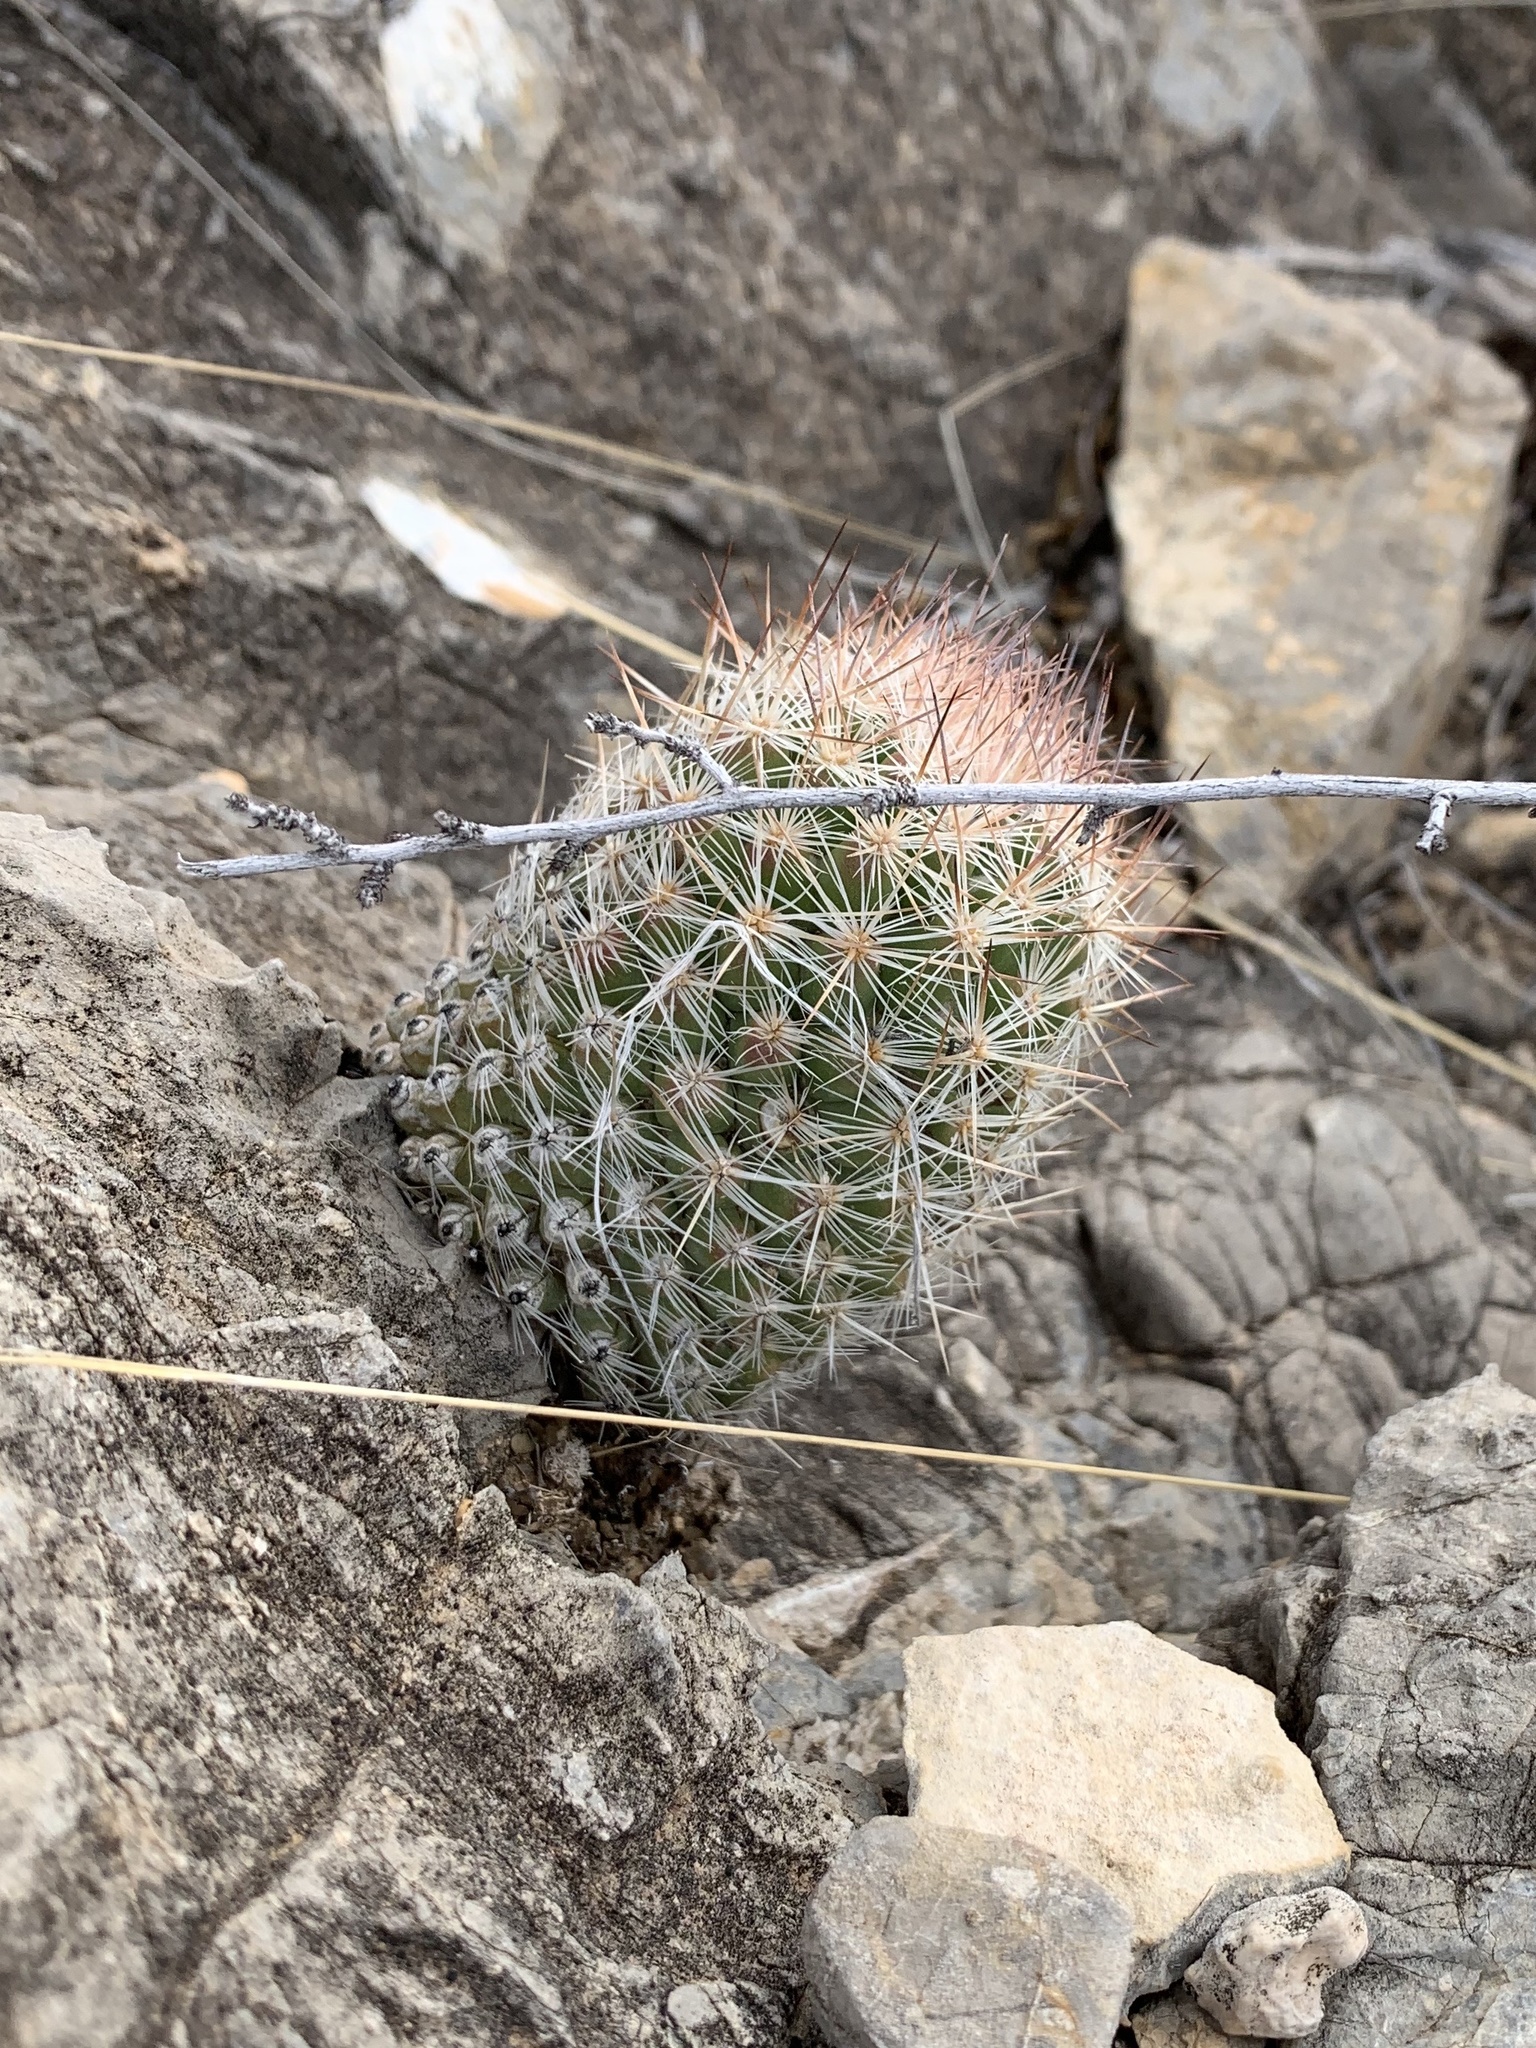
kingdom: Plantae
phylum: Tracheophyta
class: Magnoliopsida
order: Caryophyllales
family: Cactaceae
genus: Pelecyphora
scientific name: Pelecyphora tuberculosa
